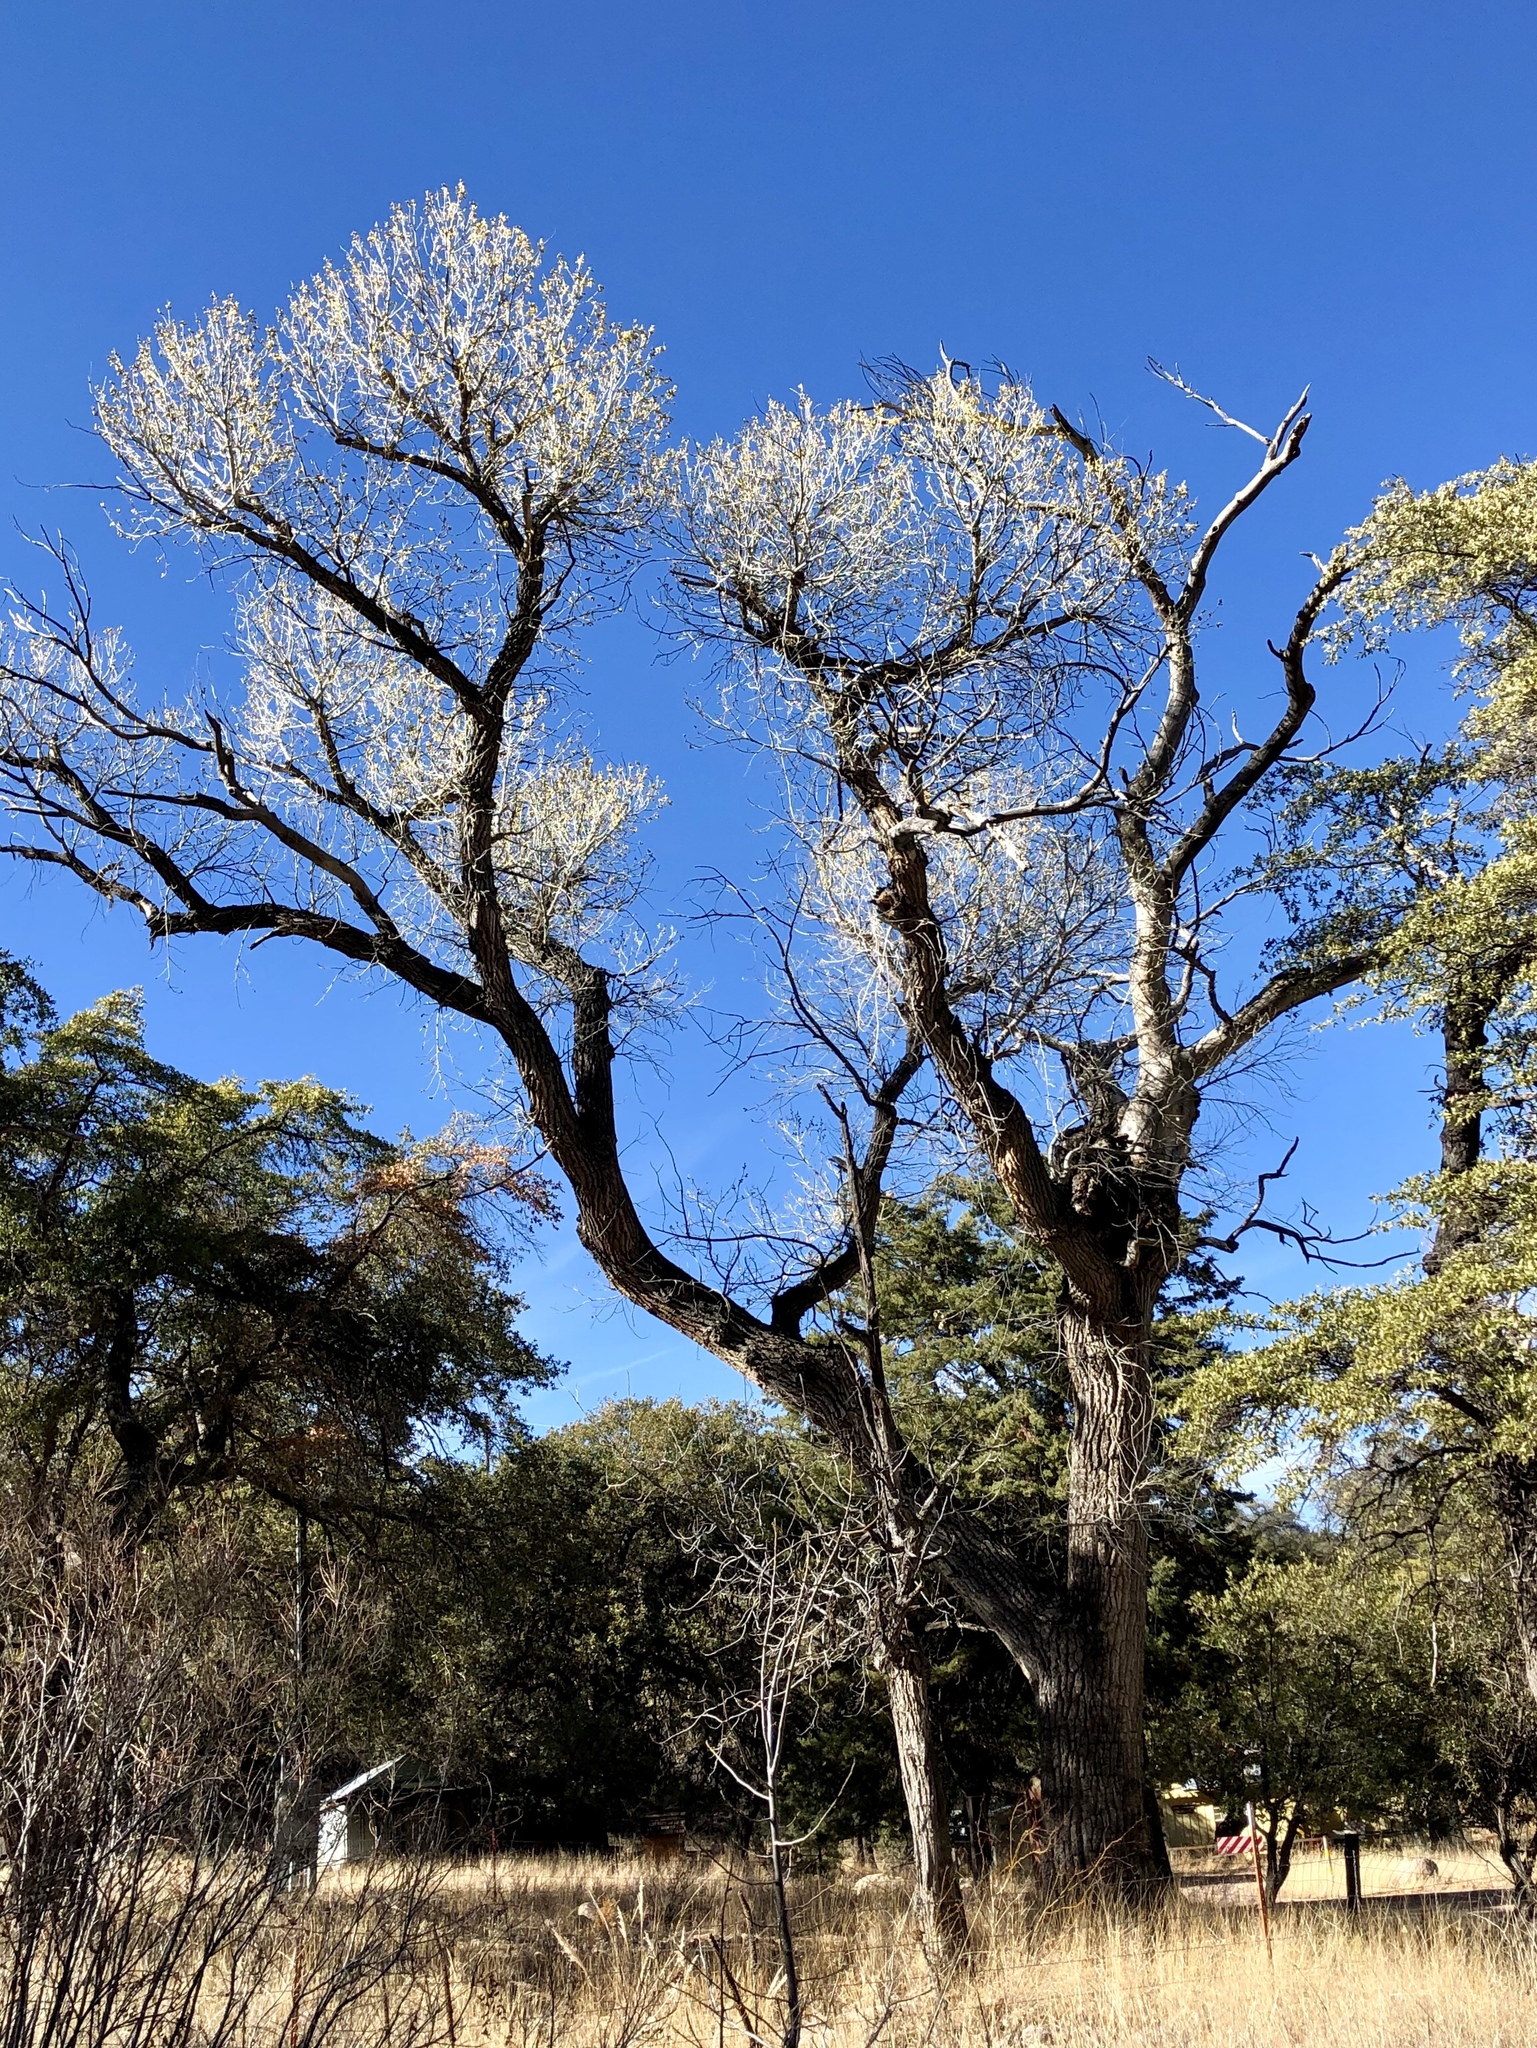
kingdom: Plantae
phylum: Tracheophyta
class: Magnoliopsida
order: Malpighiales
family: Salicaceae
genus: Populus
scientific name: Populus fremontii
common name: Fremont's cottonwood
